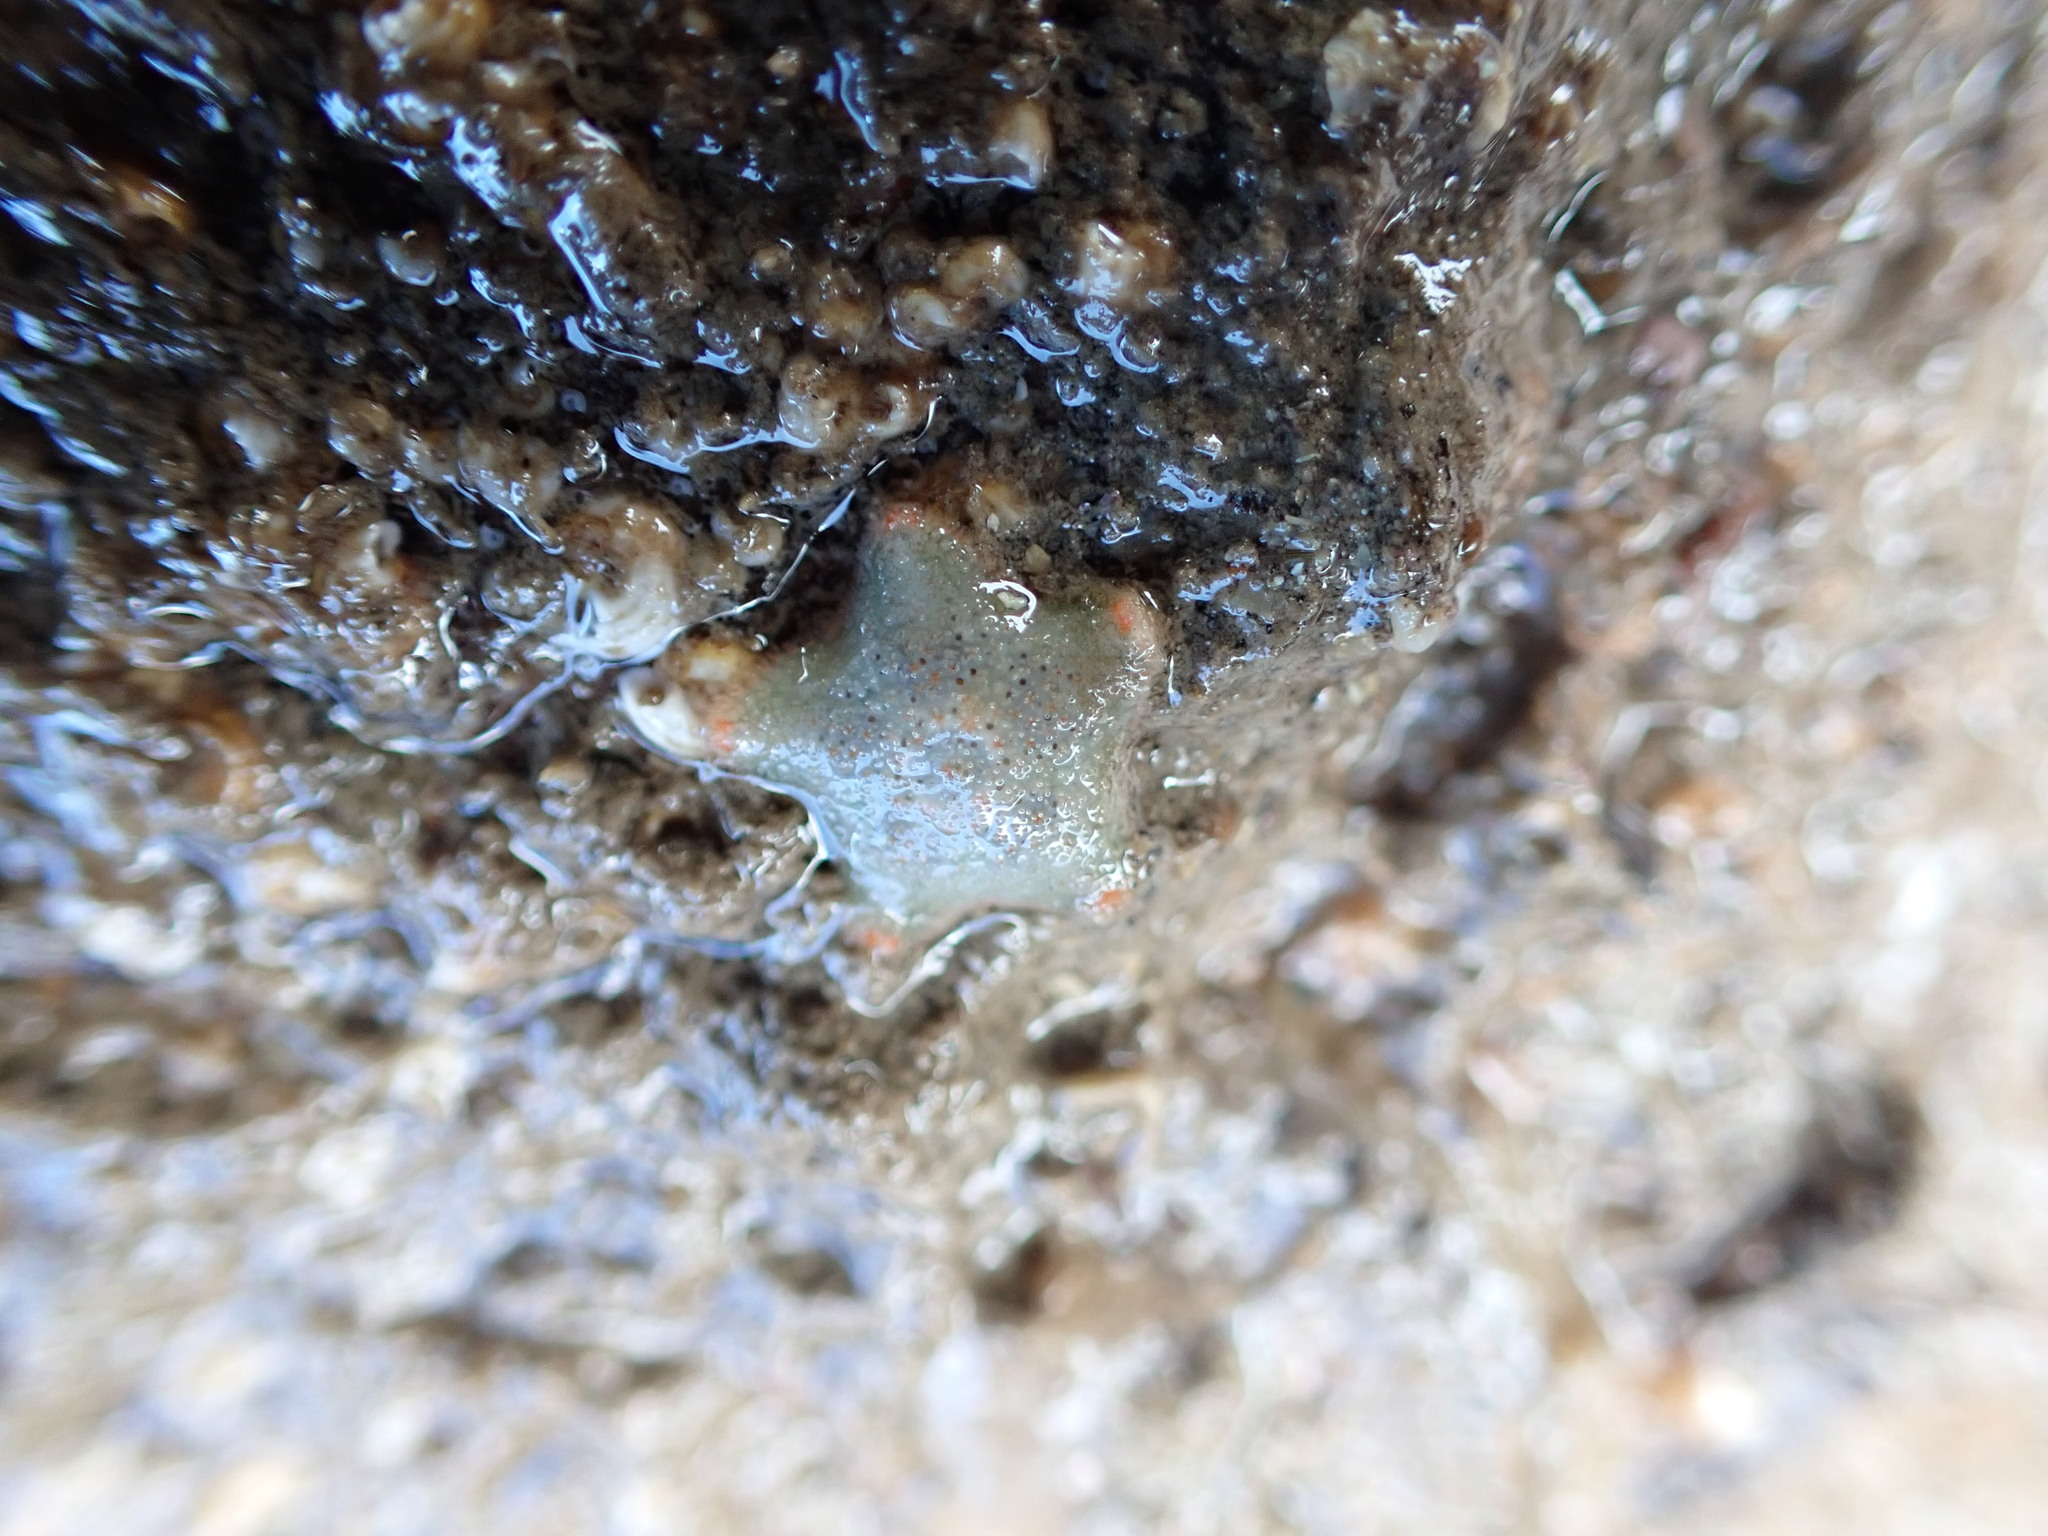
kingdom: Animalia
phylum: Echinodermata
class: Asteroidea
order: Valvatida
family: Asterinidae
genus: Asterina
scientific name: Asterina gibbosa
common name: Cushion star
